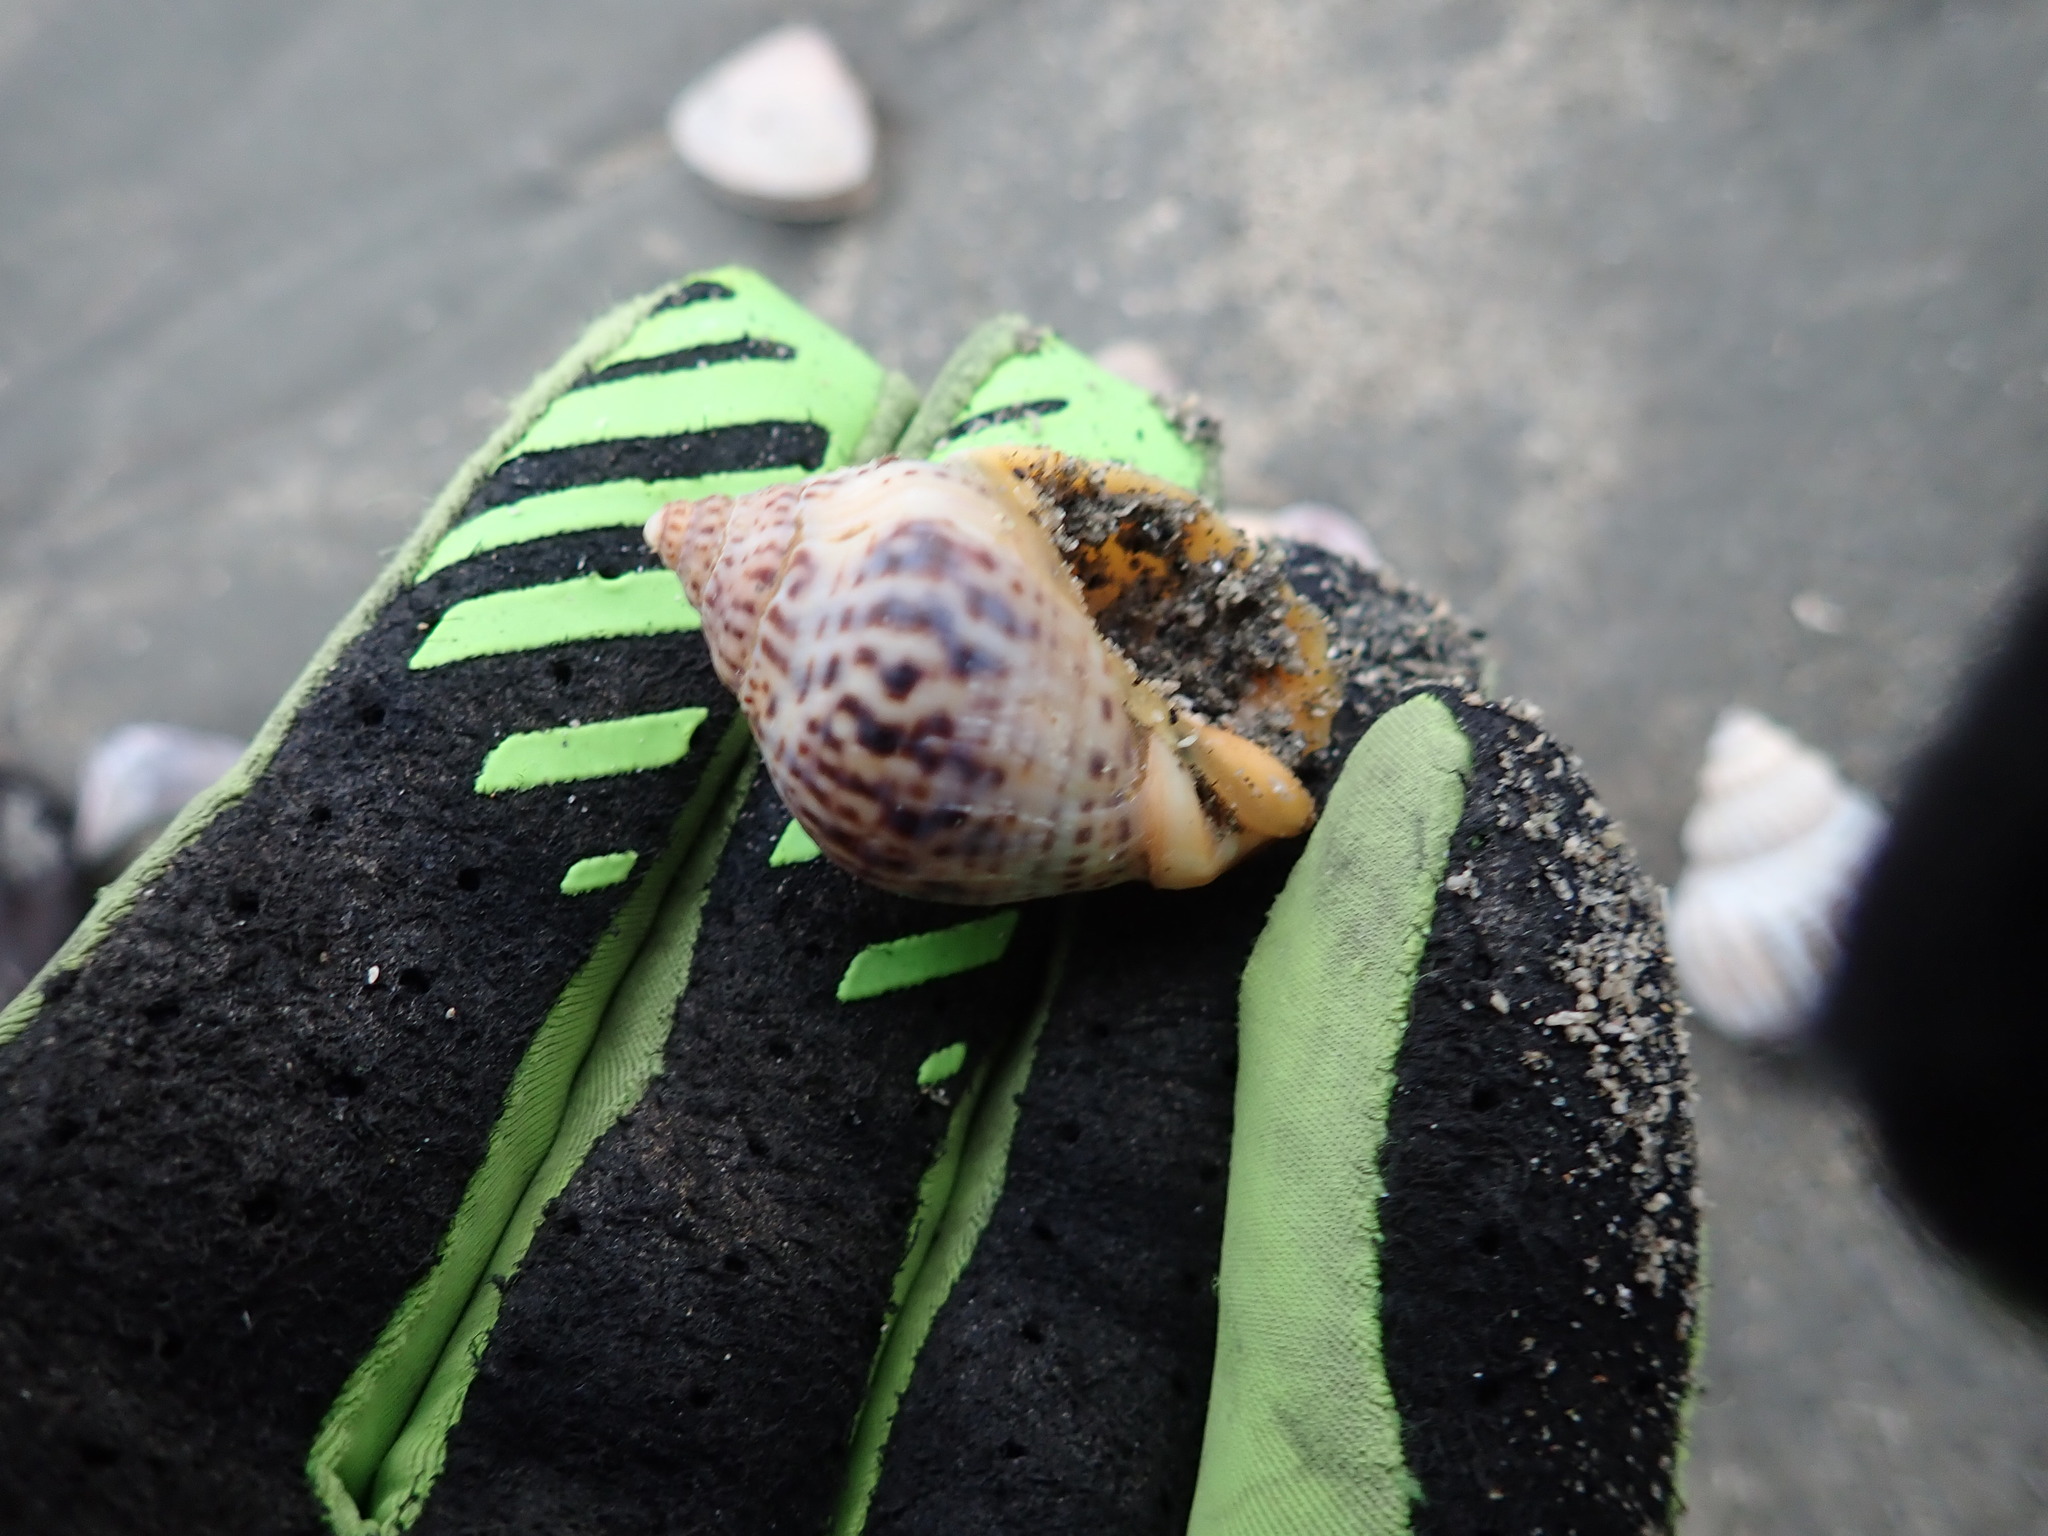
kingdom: Animalia
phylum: Mollusca
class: Gastropoda
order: Neogastropoda
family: Cominellidae
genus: Cominella
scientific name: Cominella adspersa
